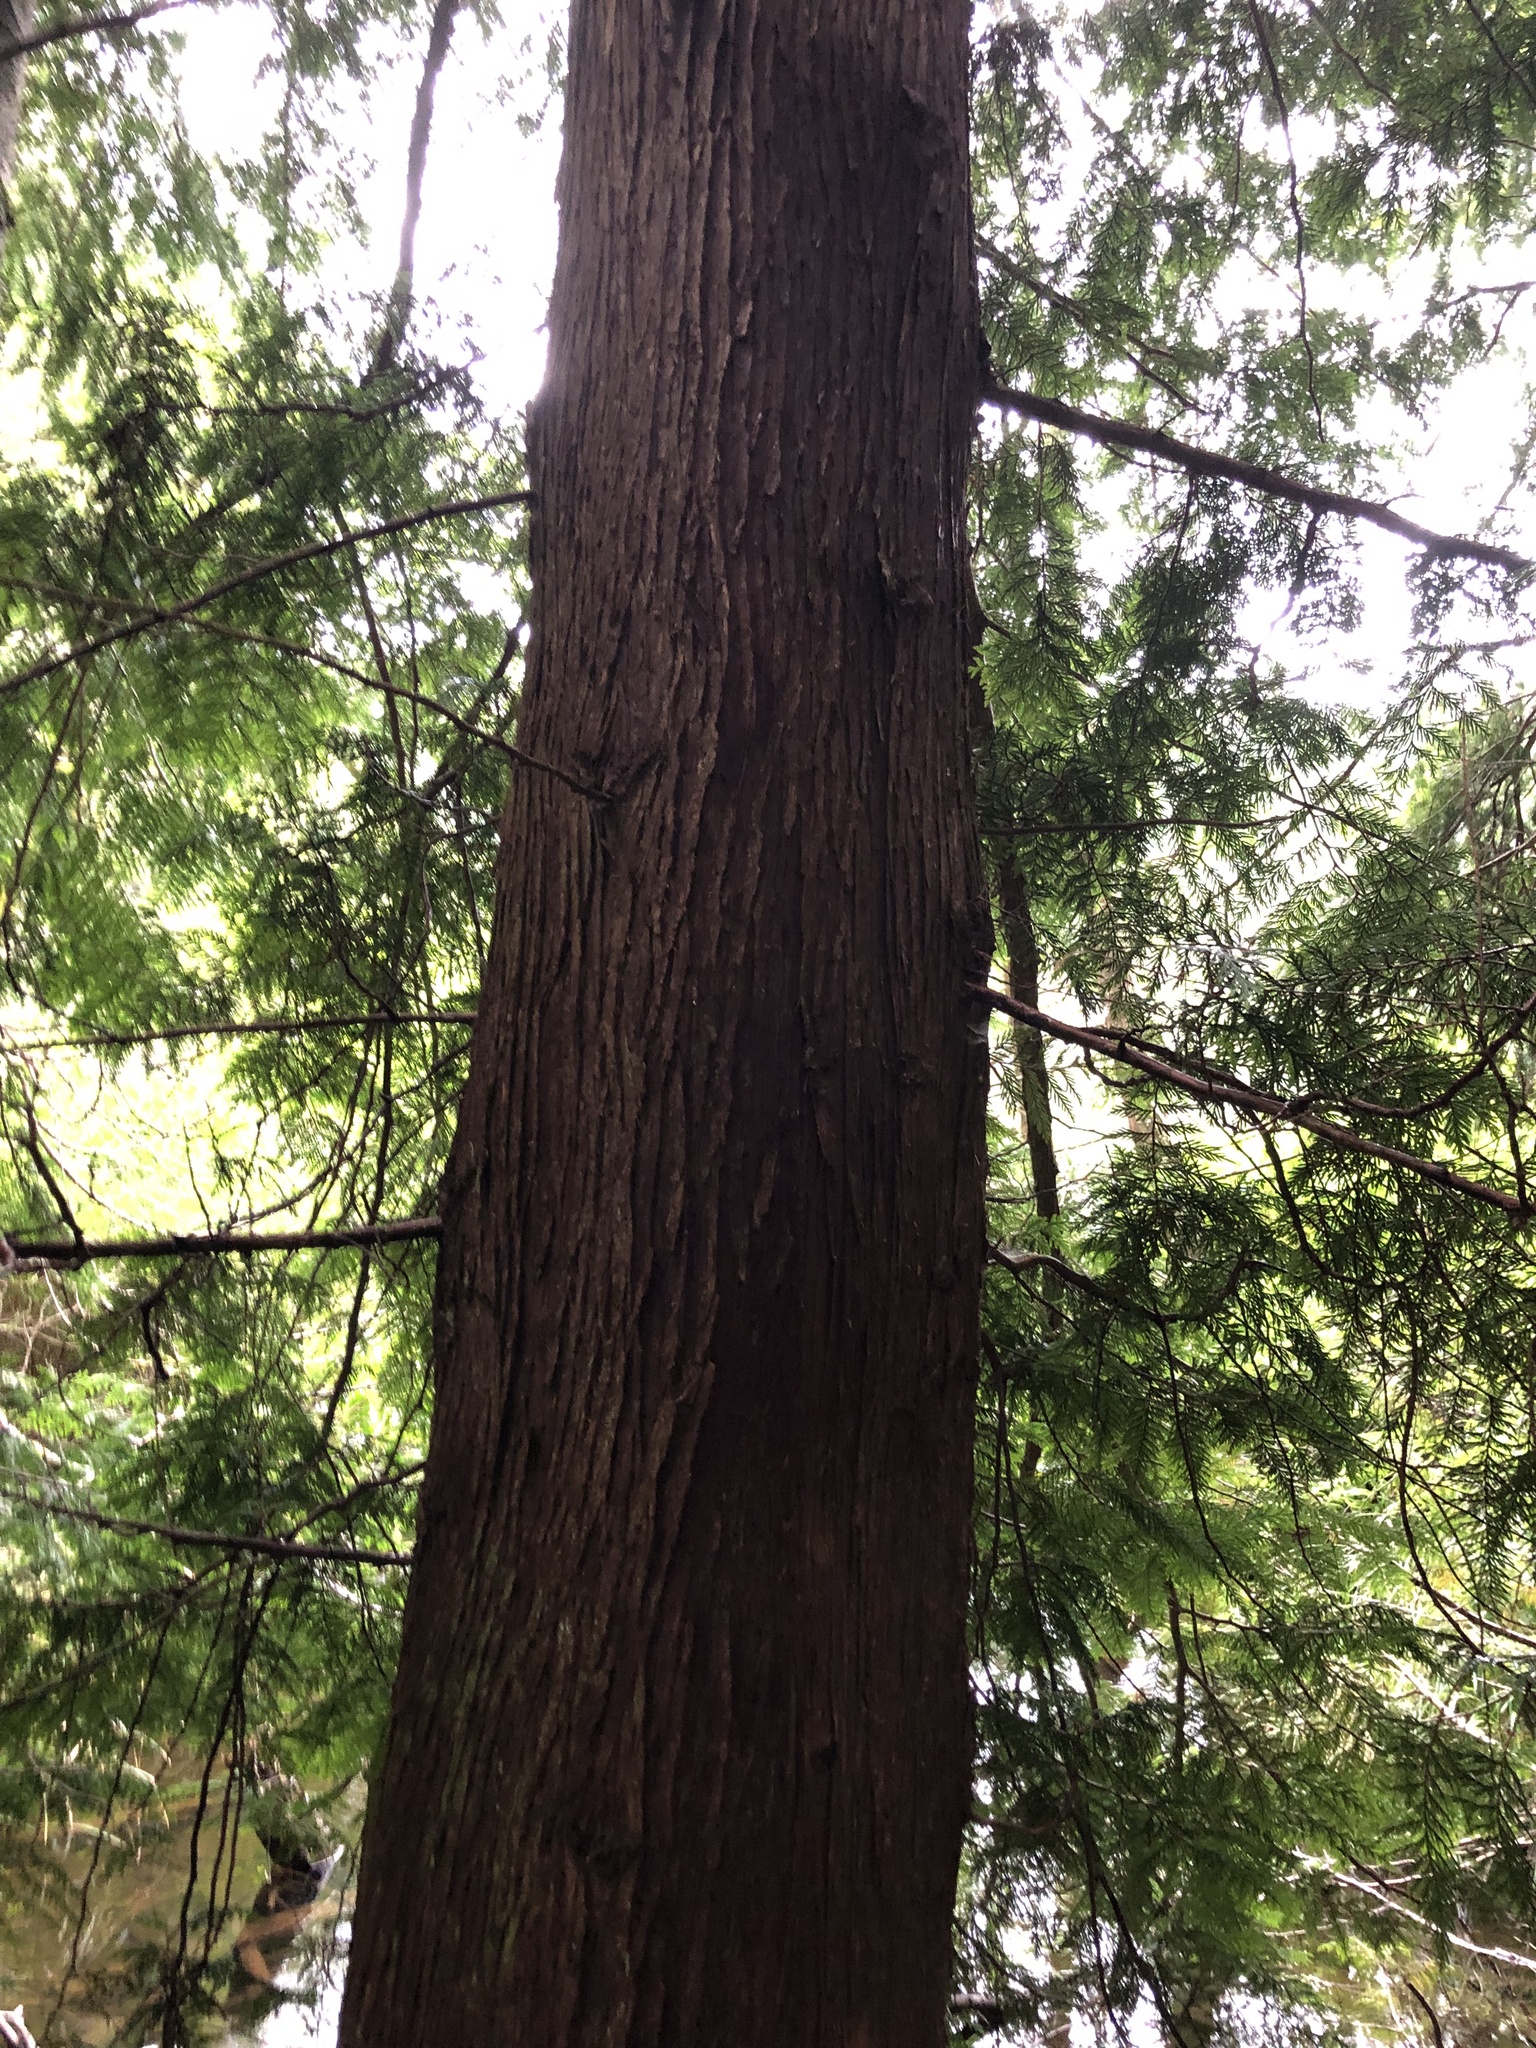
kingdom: Plantae
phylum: Tracheophyta
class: Pinopsida
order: Pinales
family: Cupressaceae
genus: Thuja
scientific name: Thuja plicata
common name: Western red-cedar
